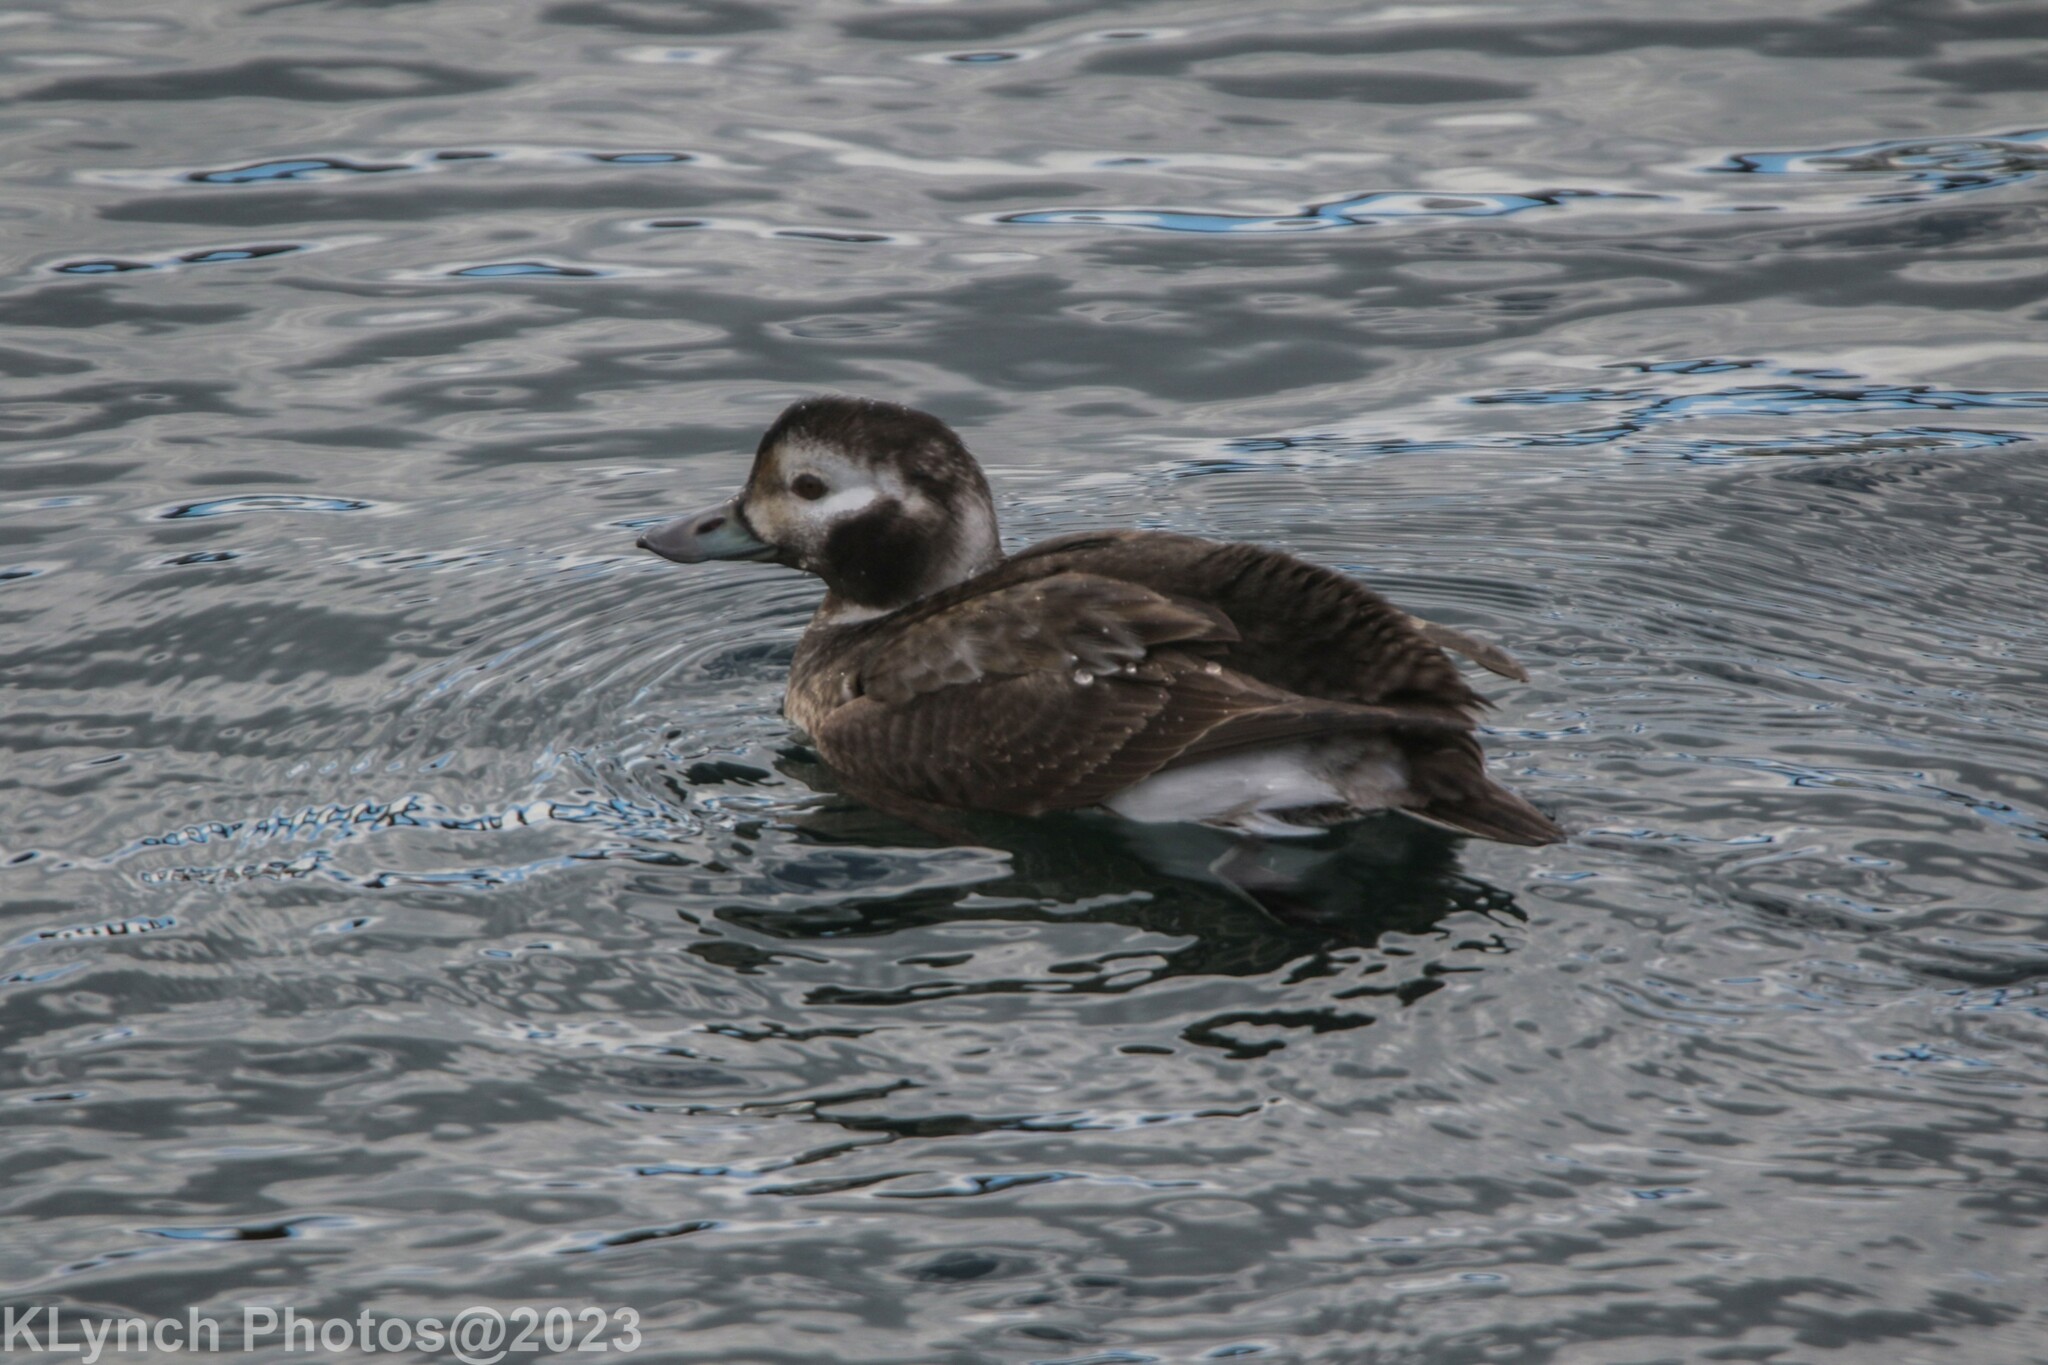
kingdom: Animalia
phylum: Chordata
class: Aves
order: Anseriformes
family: Anatidae
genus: Clangula
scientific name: Clangula hyemalis
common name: Long-tailed duck
